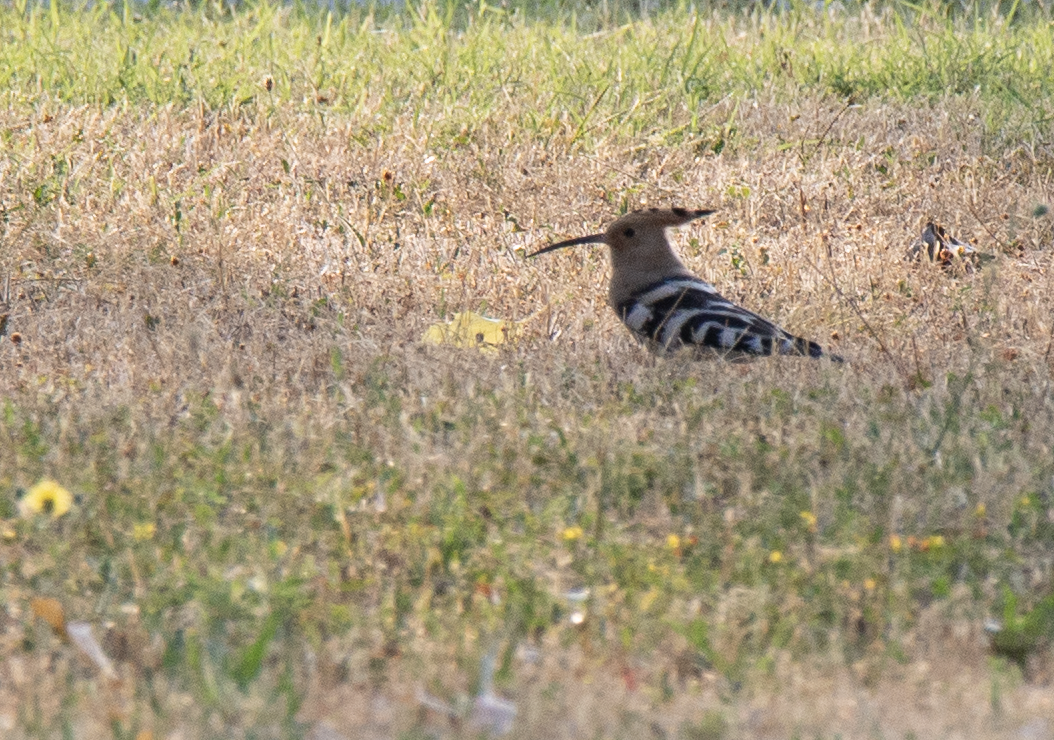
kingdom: Animalia
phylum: Chordata
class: Aves
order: Bucerotiformes
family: Upupidae
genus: Upupa
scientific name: Upupa epops
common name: Eurasian hoopoe
